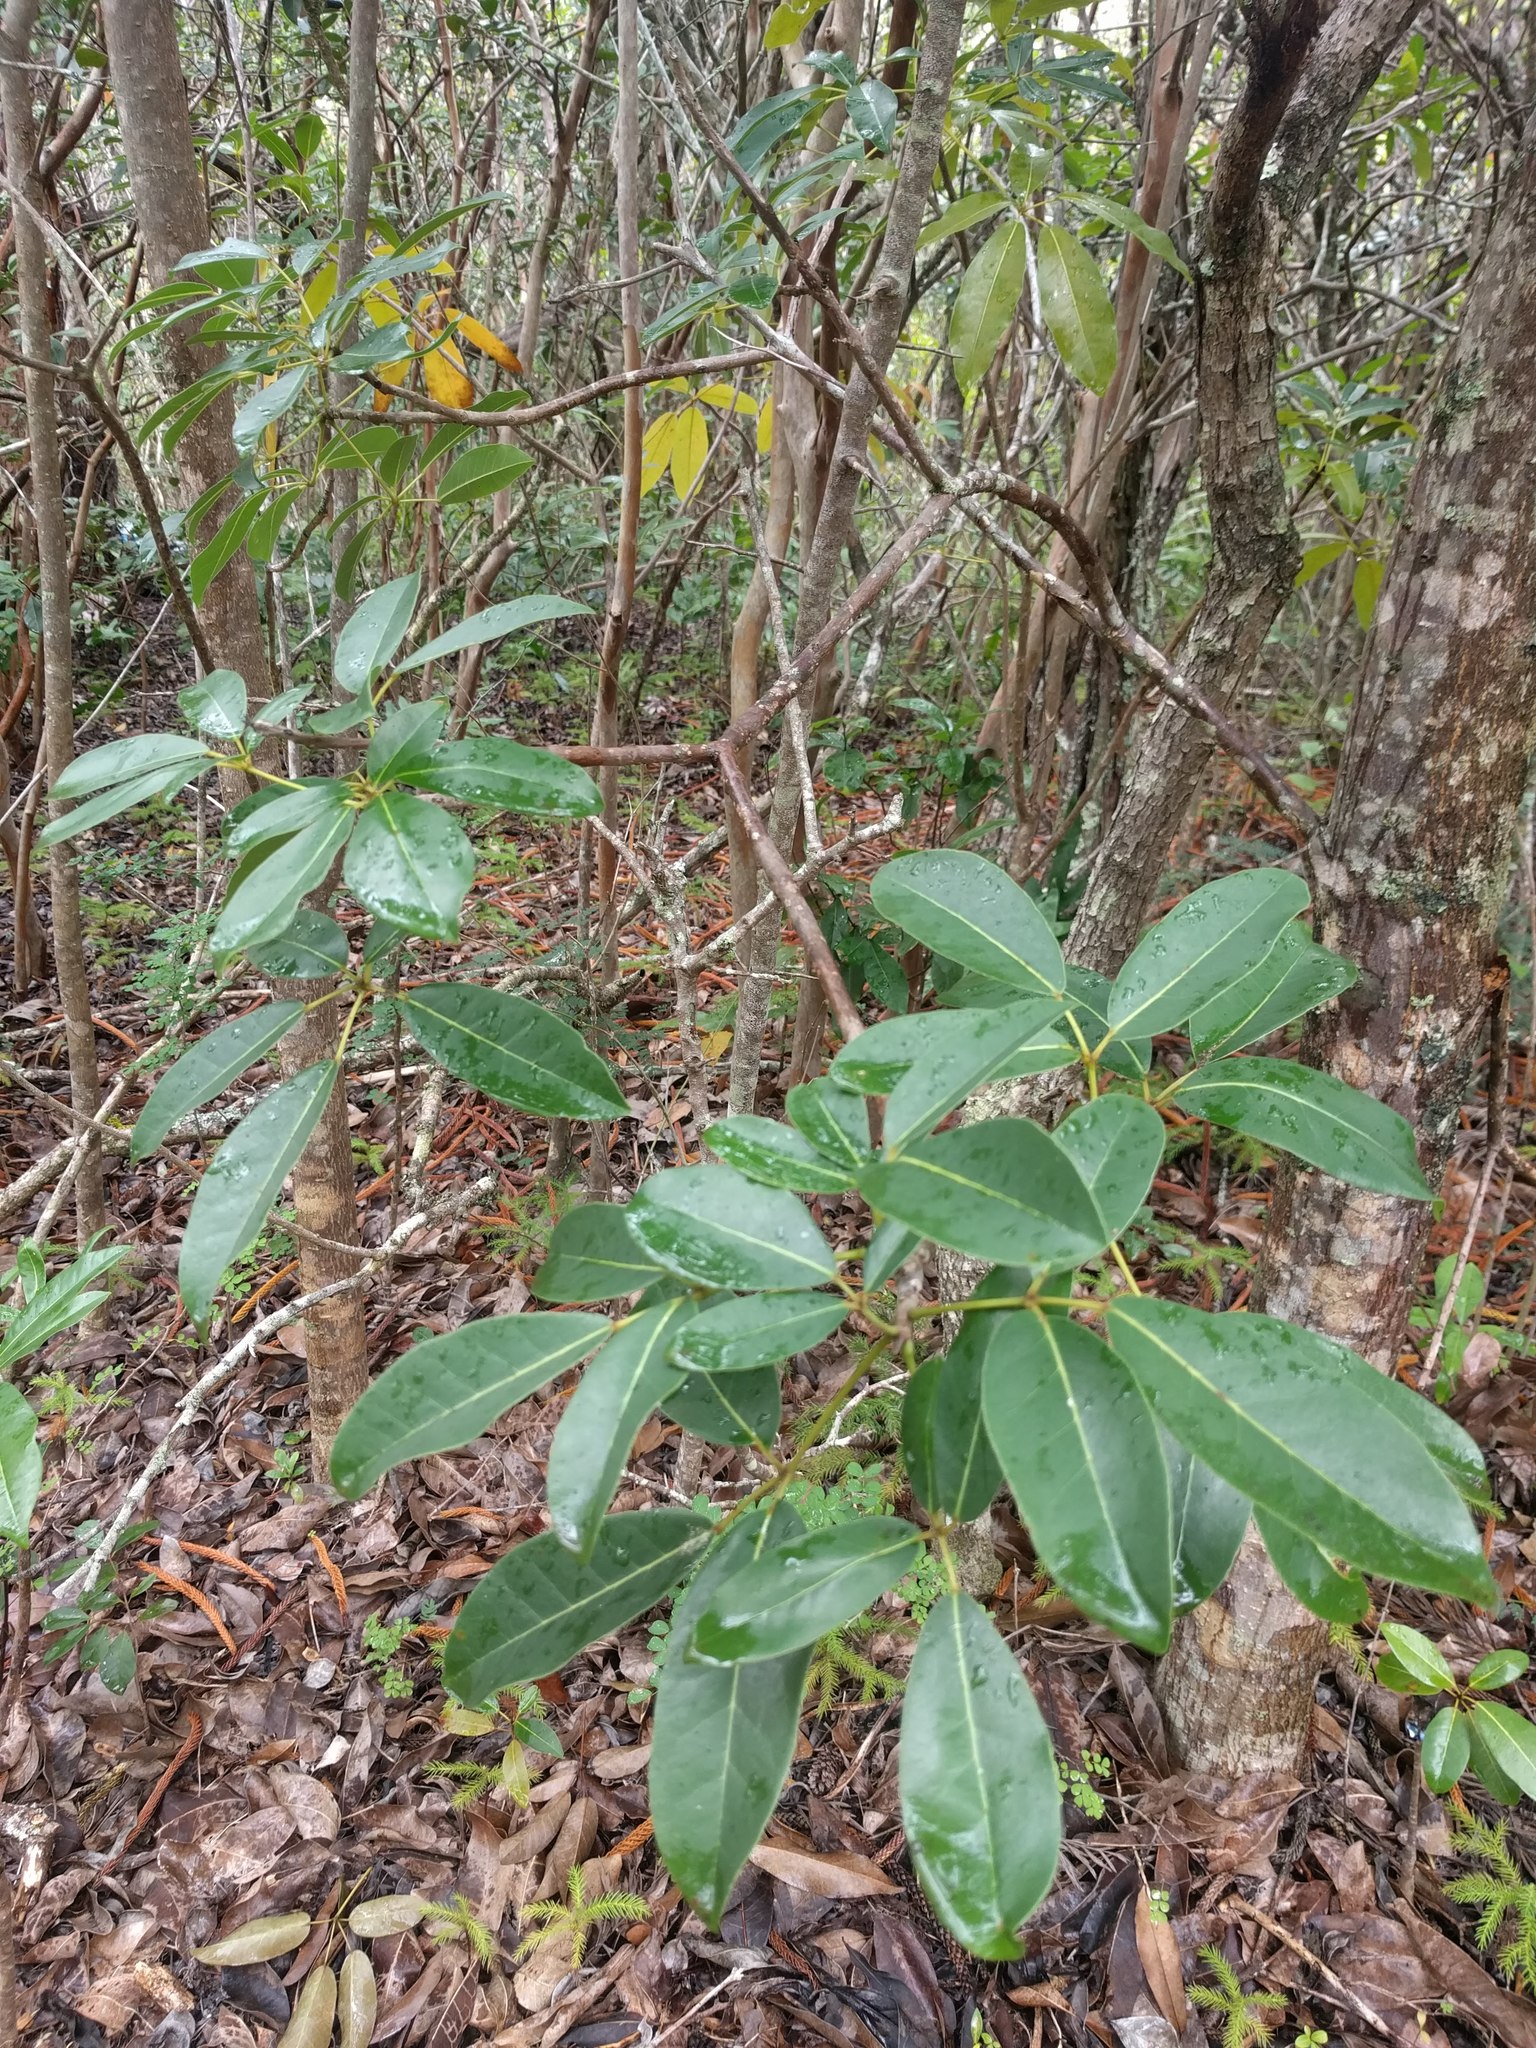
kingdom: Plantae
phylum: Tracheophyta
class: Magnoliopsida
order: Lamiales
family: Bignoniaceae
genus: Tabebuia
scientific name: Tabebuia heterophylla
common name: White cedar
